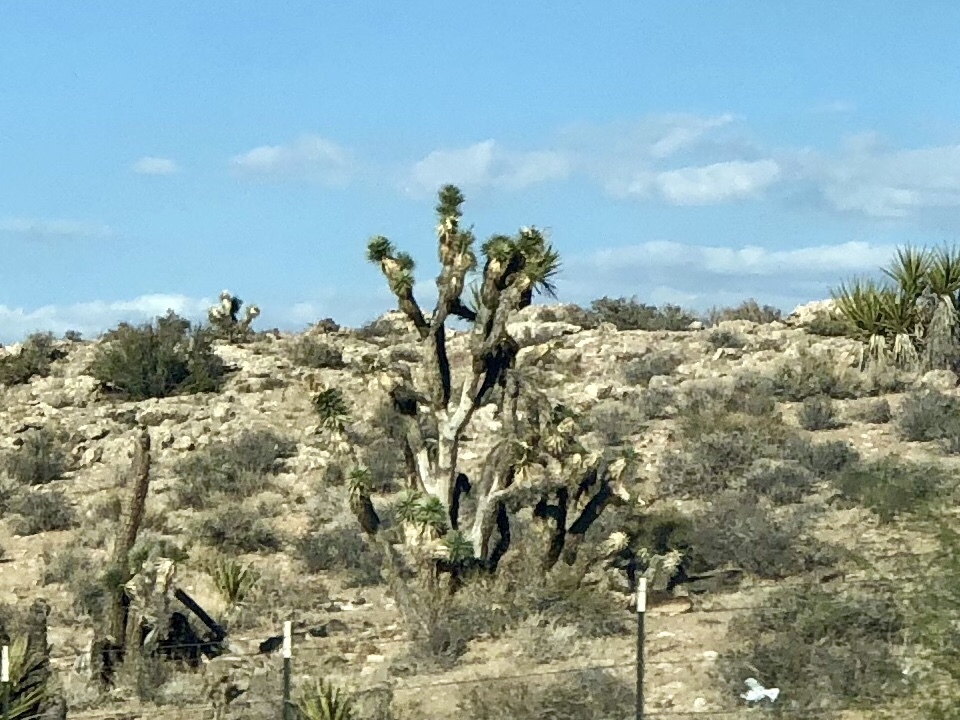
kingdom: Plantae
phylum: Tracheophyta
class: Liliopsida
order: Asparagales
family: Asparagaceae
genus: Yucca
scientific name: Yucca brevifolia
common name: Joshua tree
